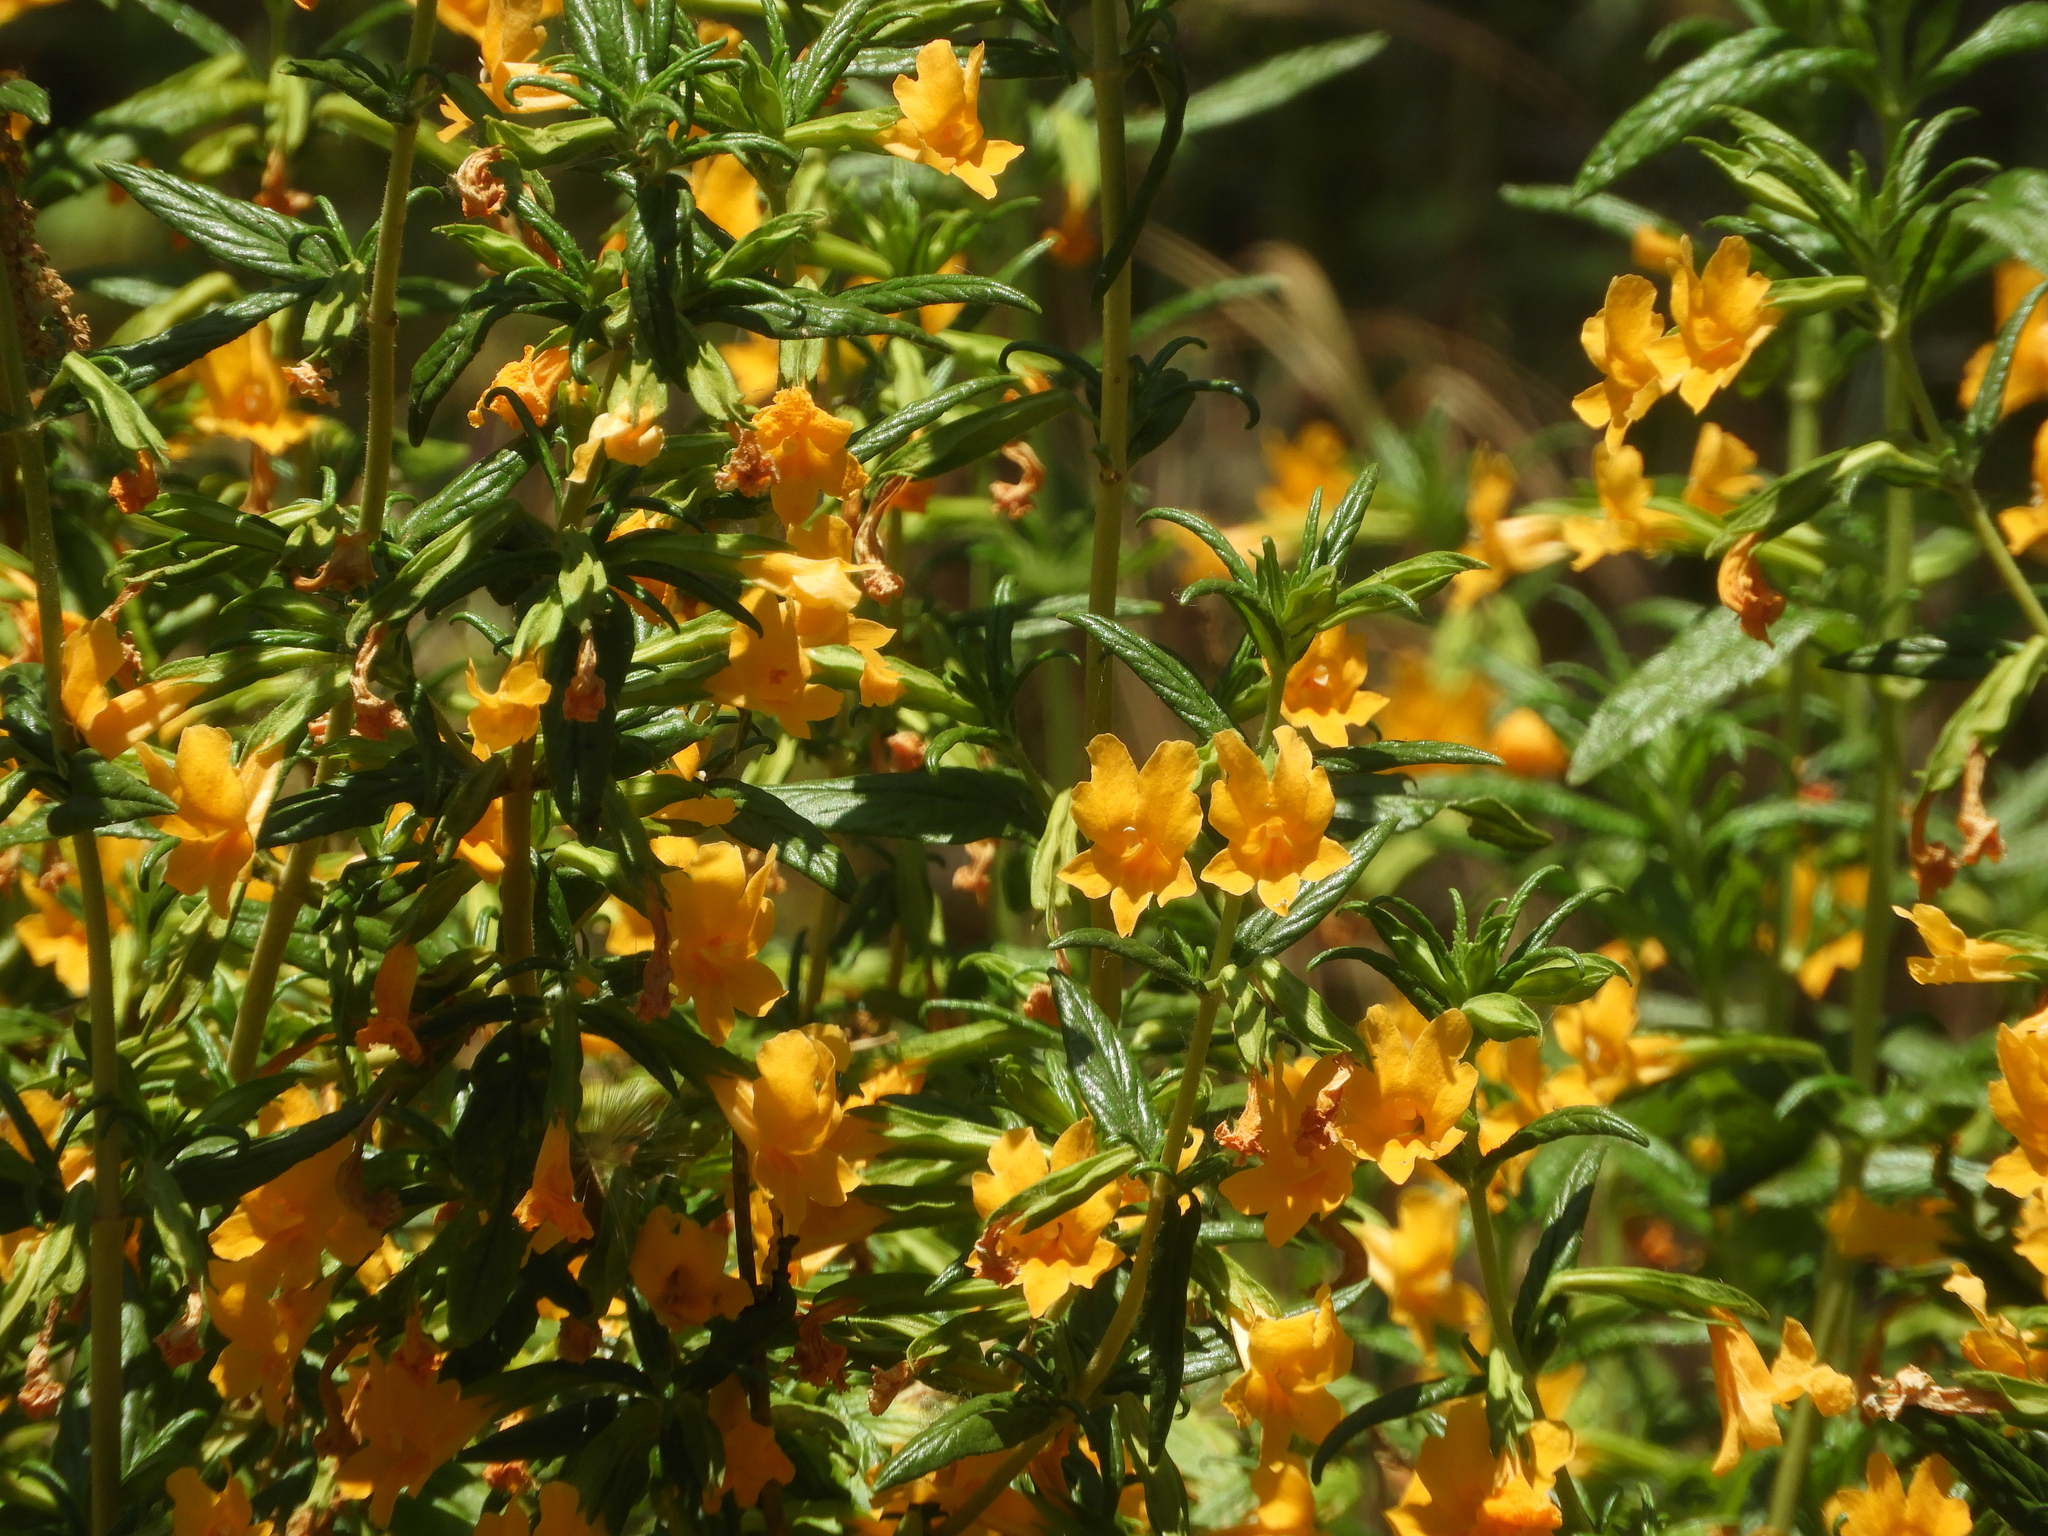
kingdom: Plantae
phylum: Tracheophyta
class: Magnoliopsida
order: Lamiales
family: Phrymaceae
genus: Diplacus
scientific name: Diplacus aurantiacus
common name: Bush monkey-flower
